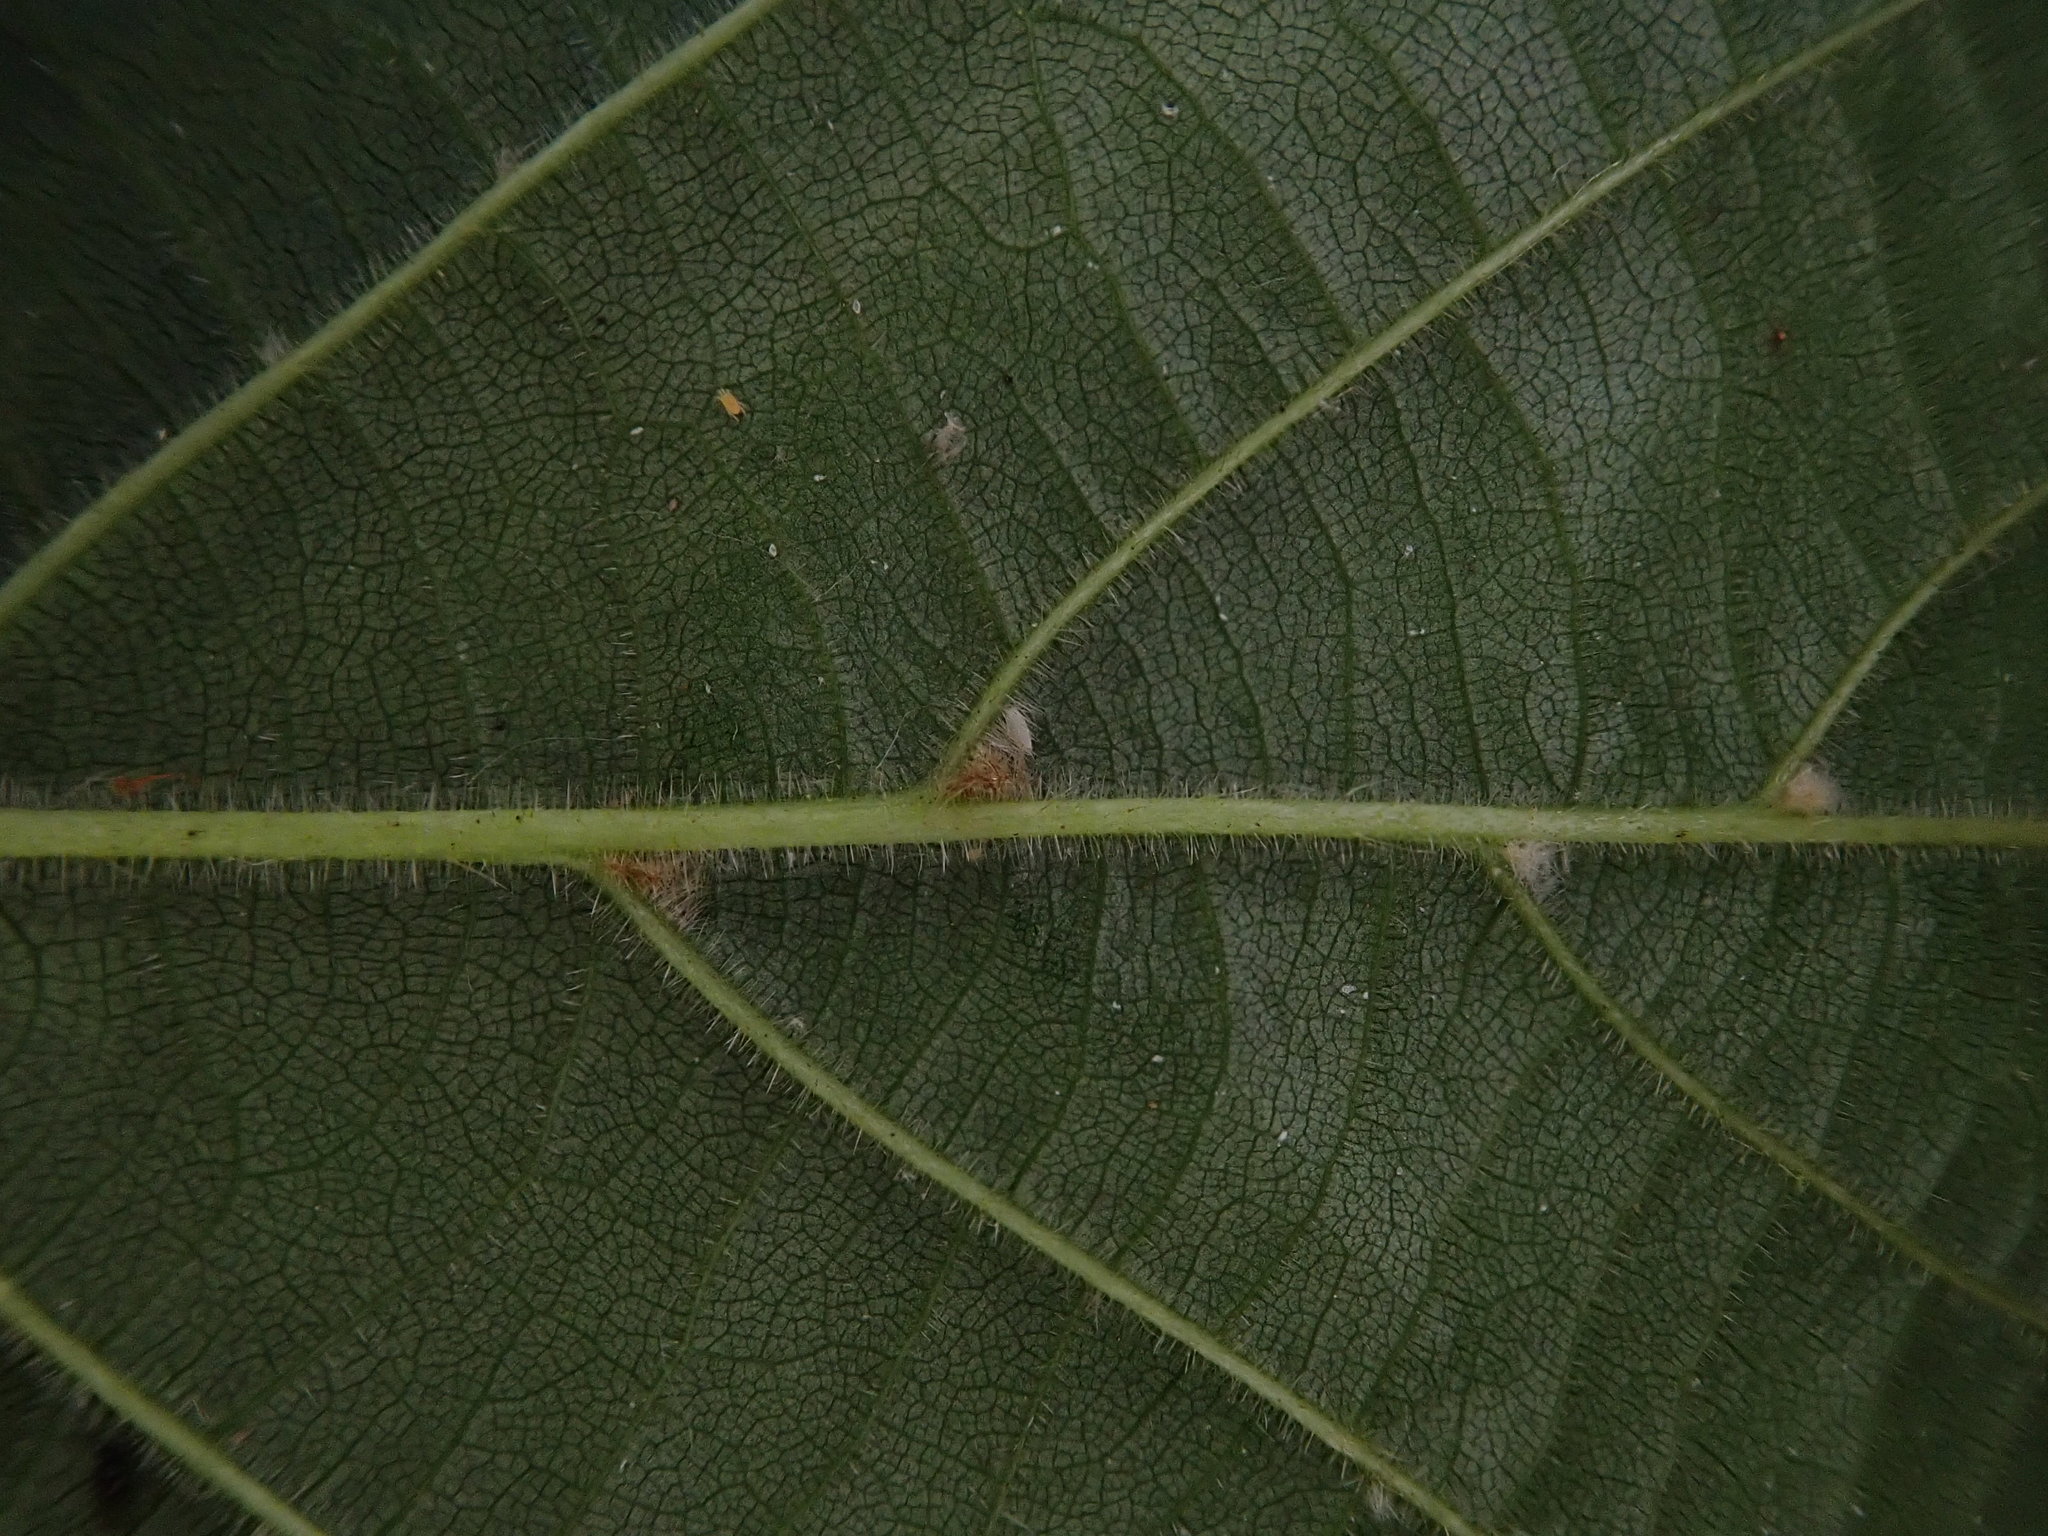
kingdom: Plantae
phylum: Tracheophyta
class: Magnoliopsida
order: Malvales
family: Malvaceae
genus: Tilia
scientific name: Tilia platyphyllos
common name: Large-leaved lime
